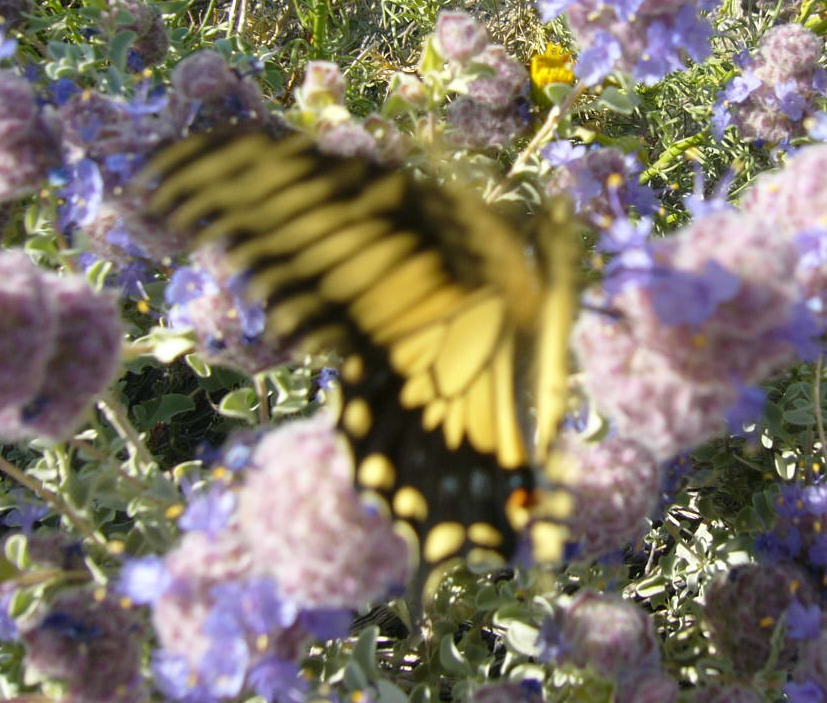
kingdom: Animalia
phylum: Arthropoda
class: Insecta
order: Lepidoptera
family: Papilionidae
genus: Papilio
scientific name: Papilio polyxenes
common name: Black swallowtail
